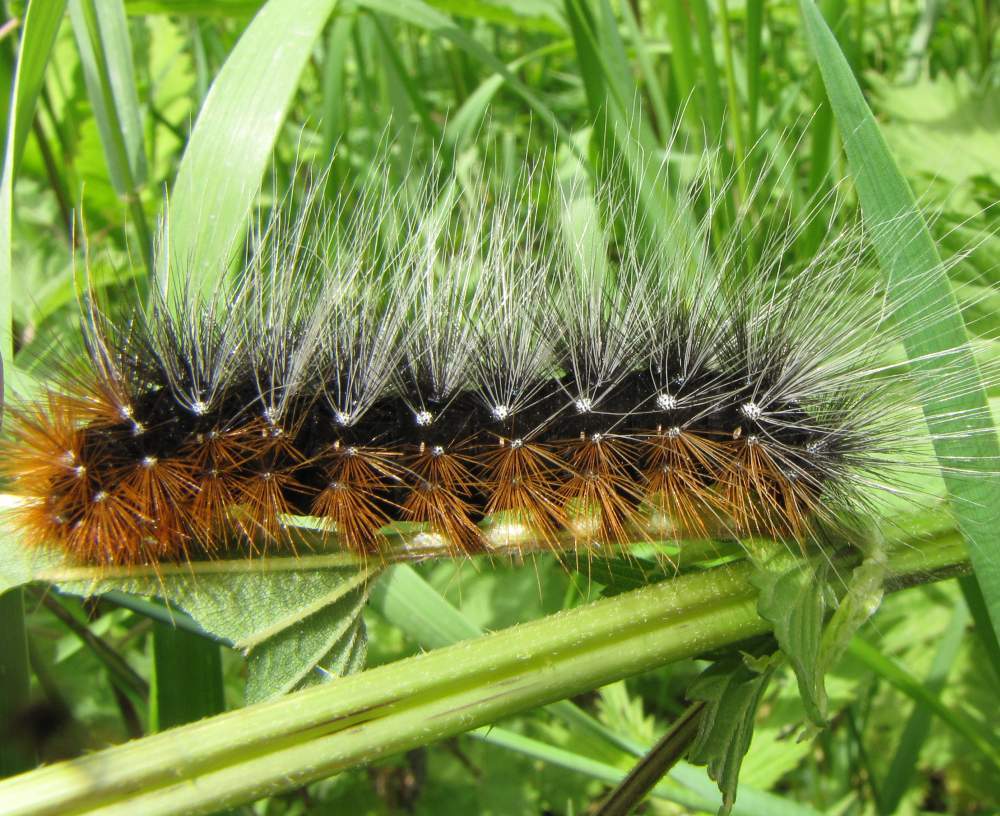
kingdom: Animalia
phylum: Arthropoda
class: Insecta
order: Lepidoptera
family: Erebidae
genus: Arctia
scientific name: Arctia caja
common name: Garden tiger
